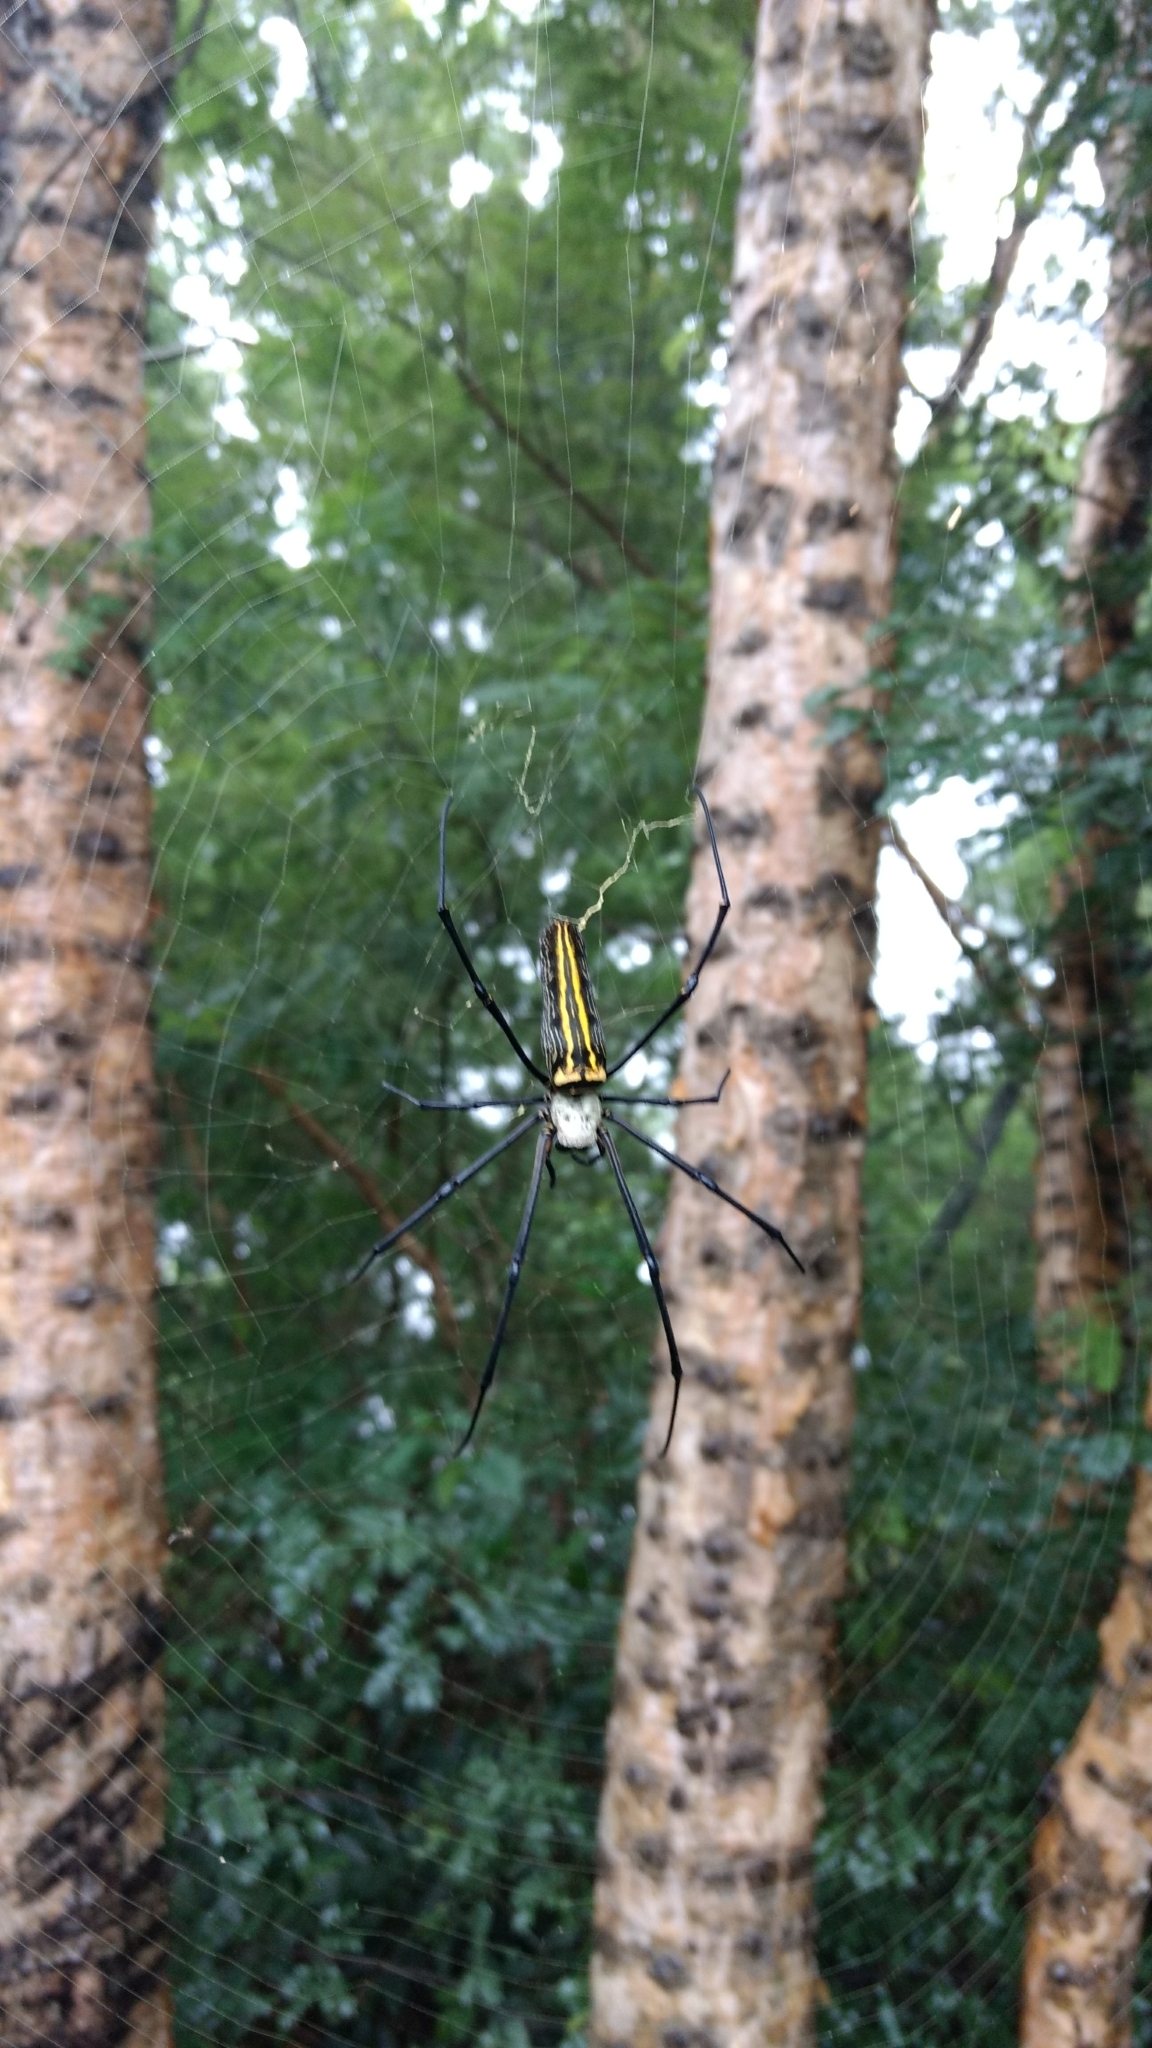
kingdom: Animalia
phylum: Arthropoda
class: Arachnida
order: Araneae
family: Araneidae
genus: Nephila
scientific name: Nephila pilipes
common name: Giant golden orb weaver
